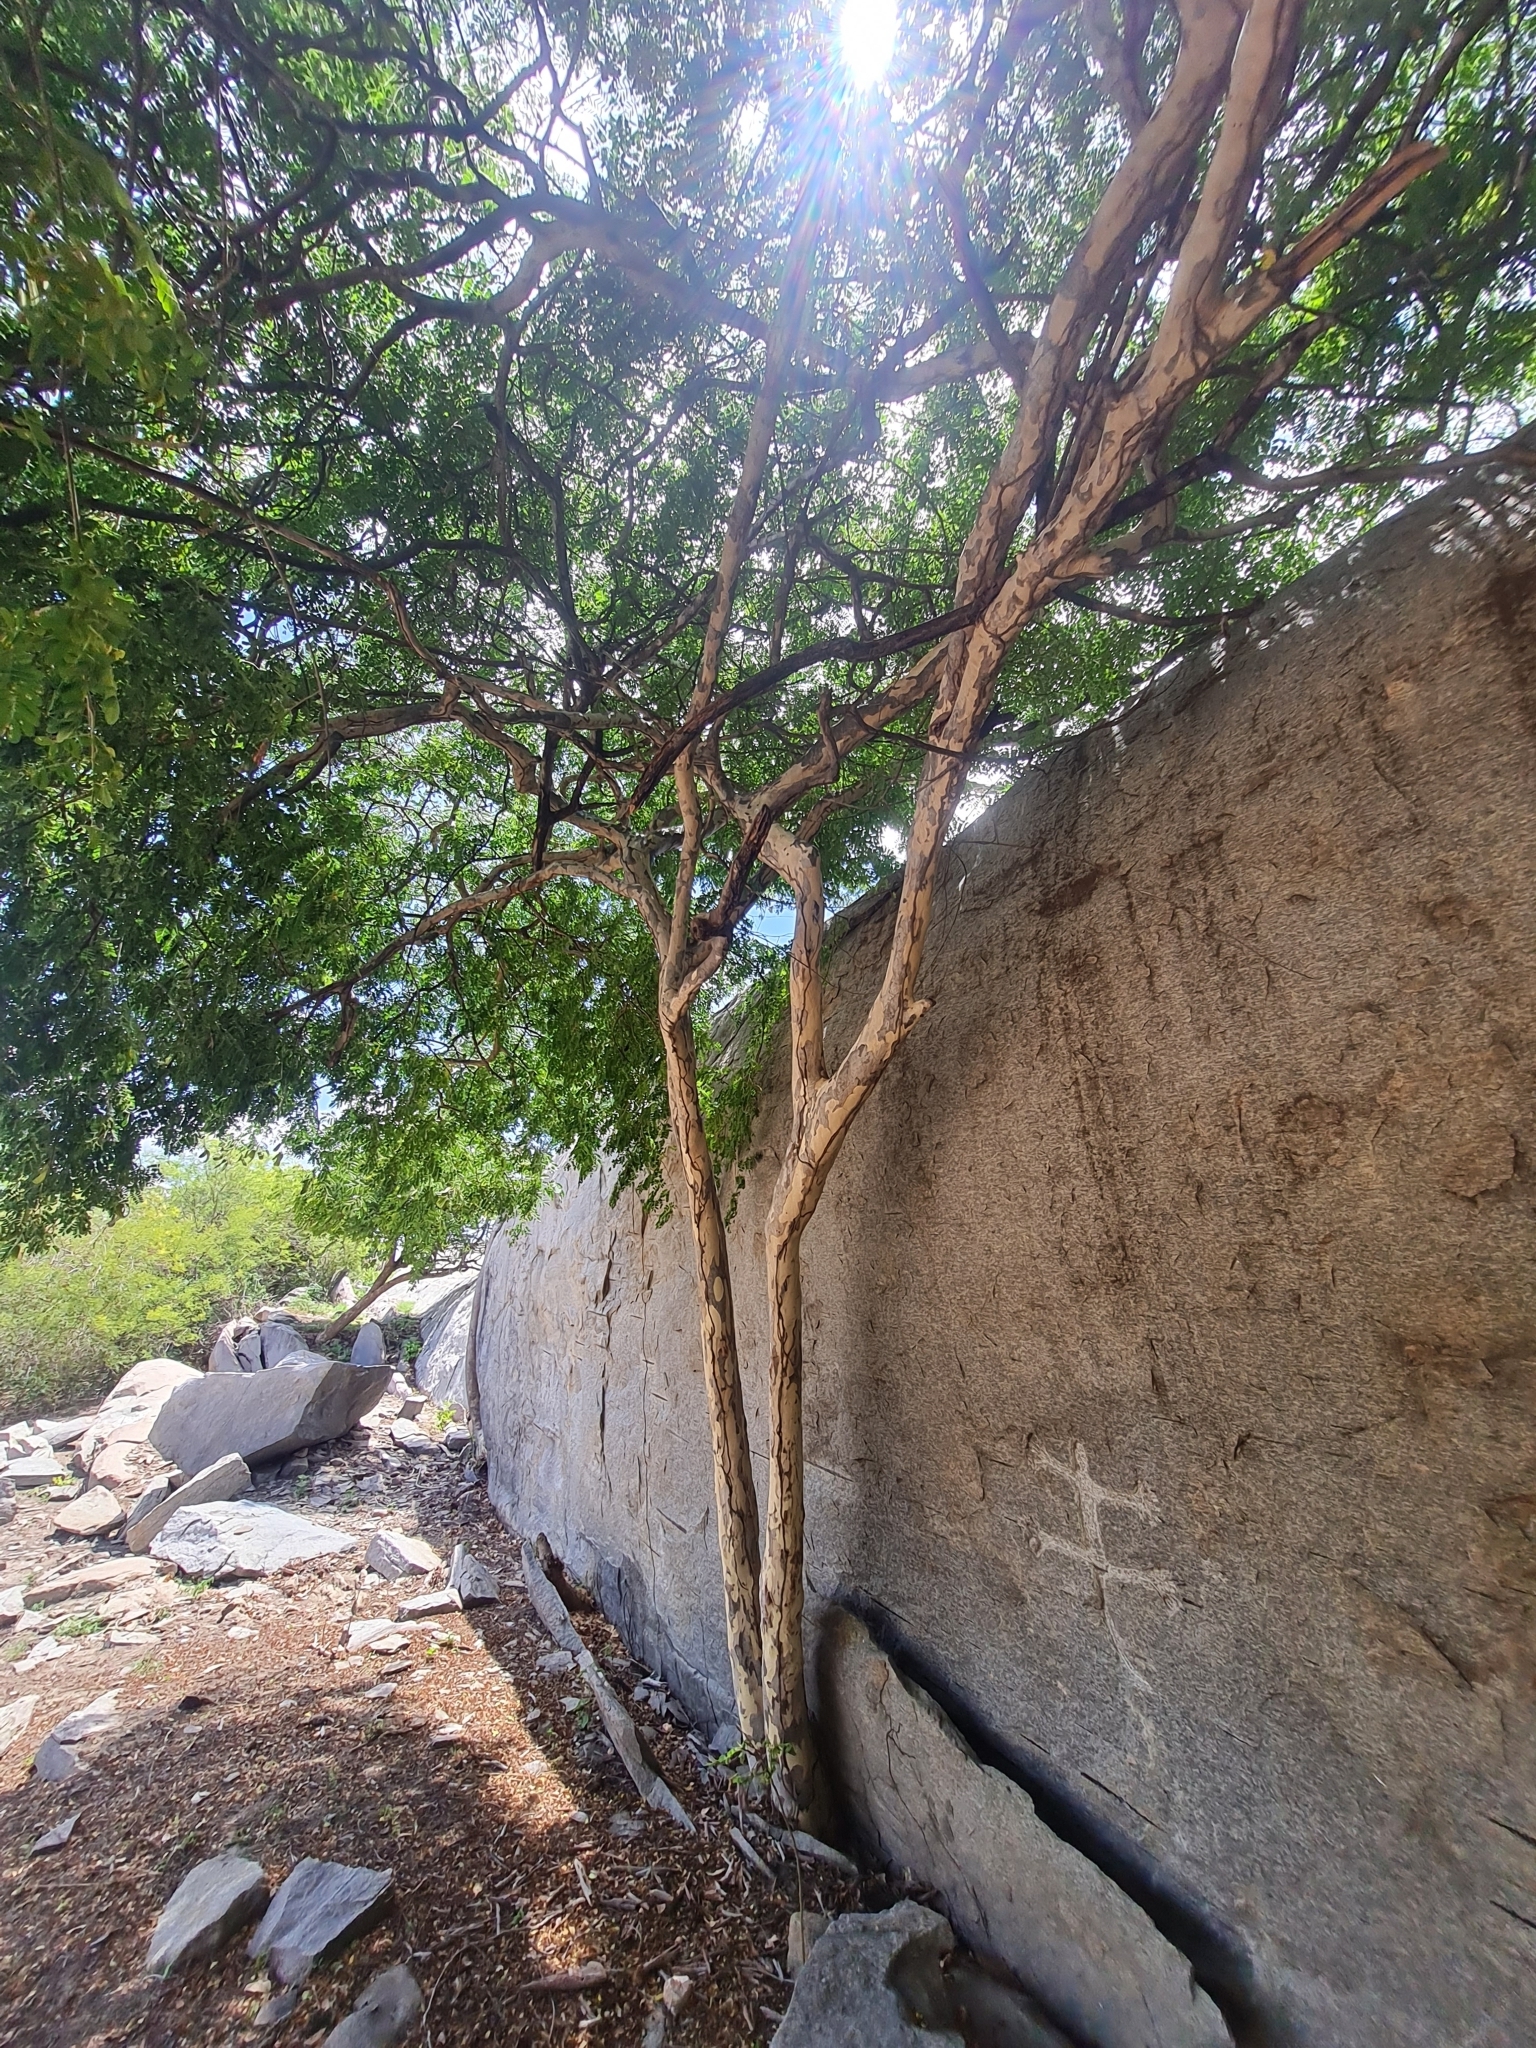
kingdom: Plantae
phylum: Tracheophyta
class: Magnoliopsida
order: Fabales
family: Fabaceae
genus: Libidibia
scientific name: Libidibia ferrea
